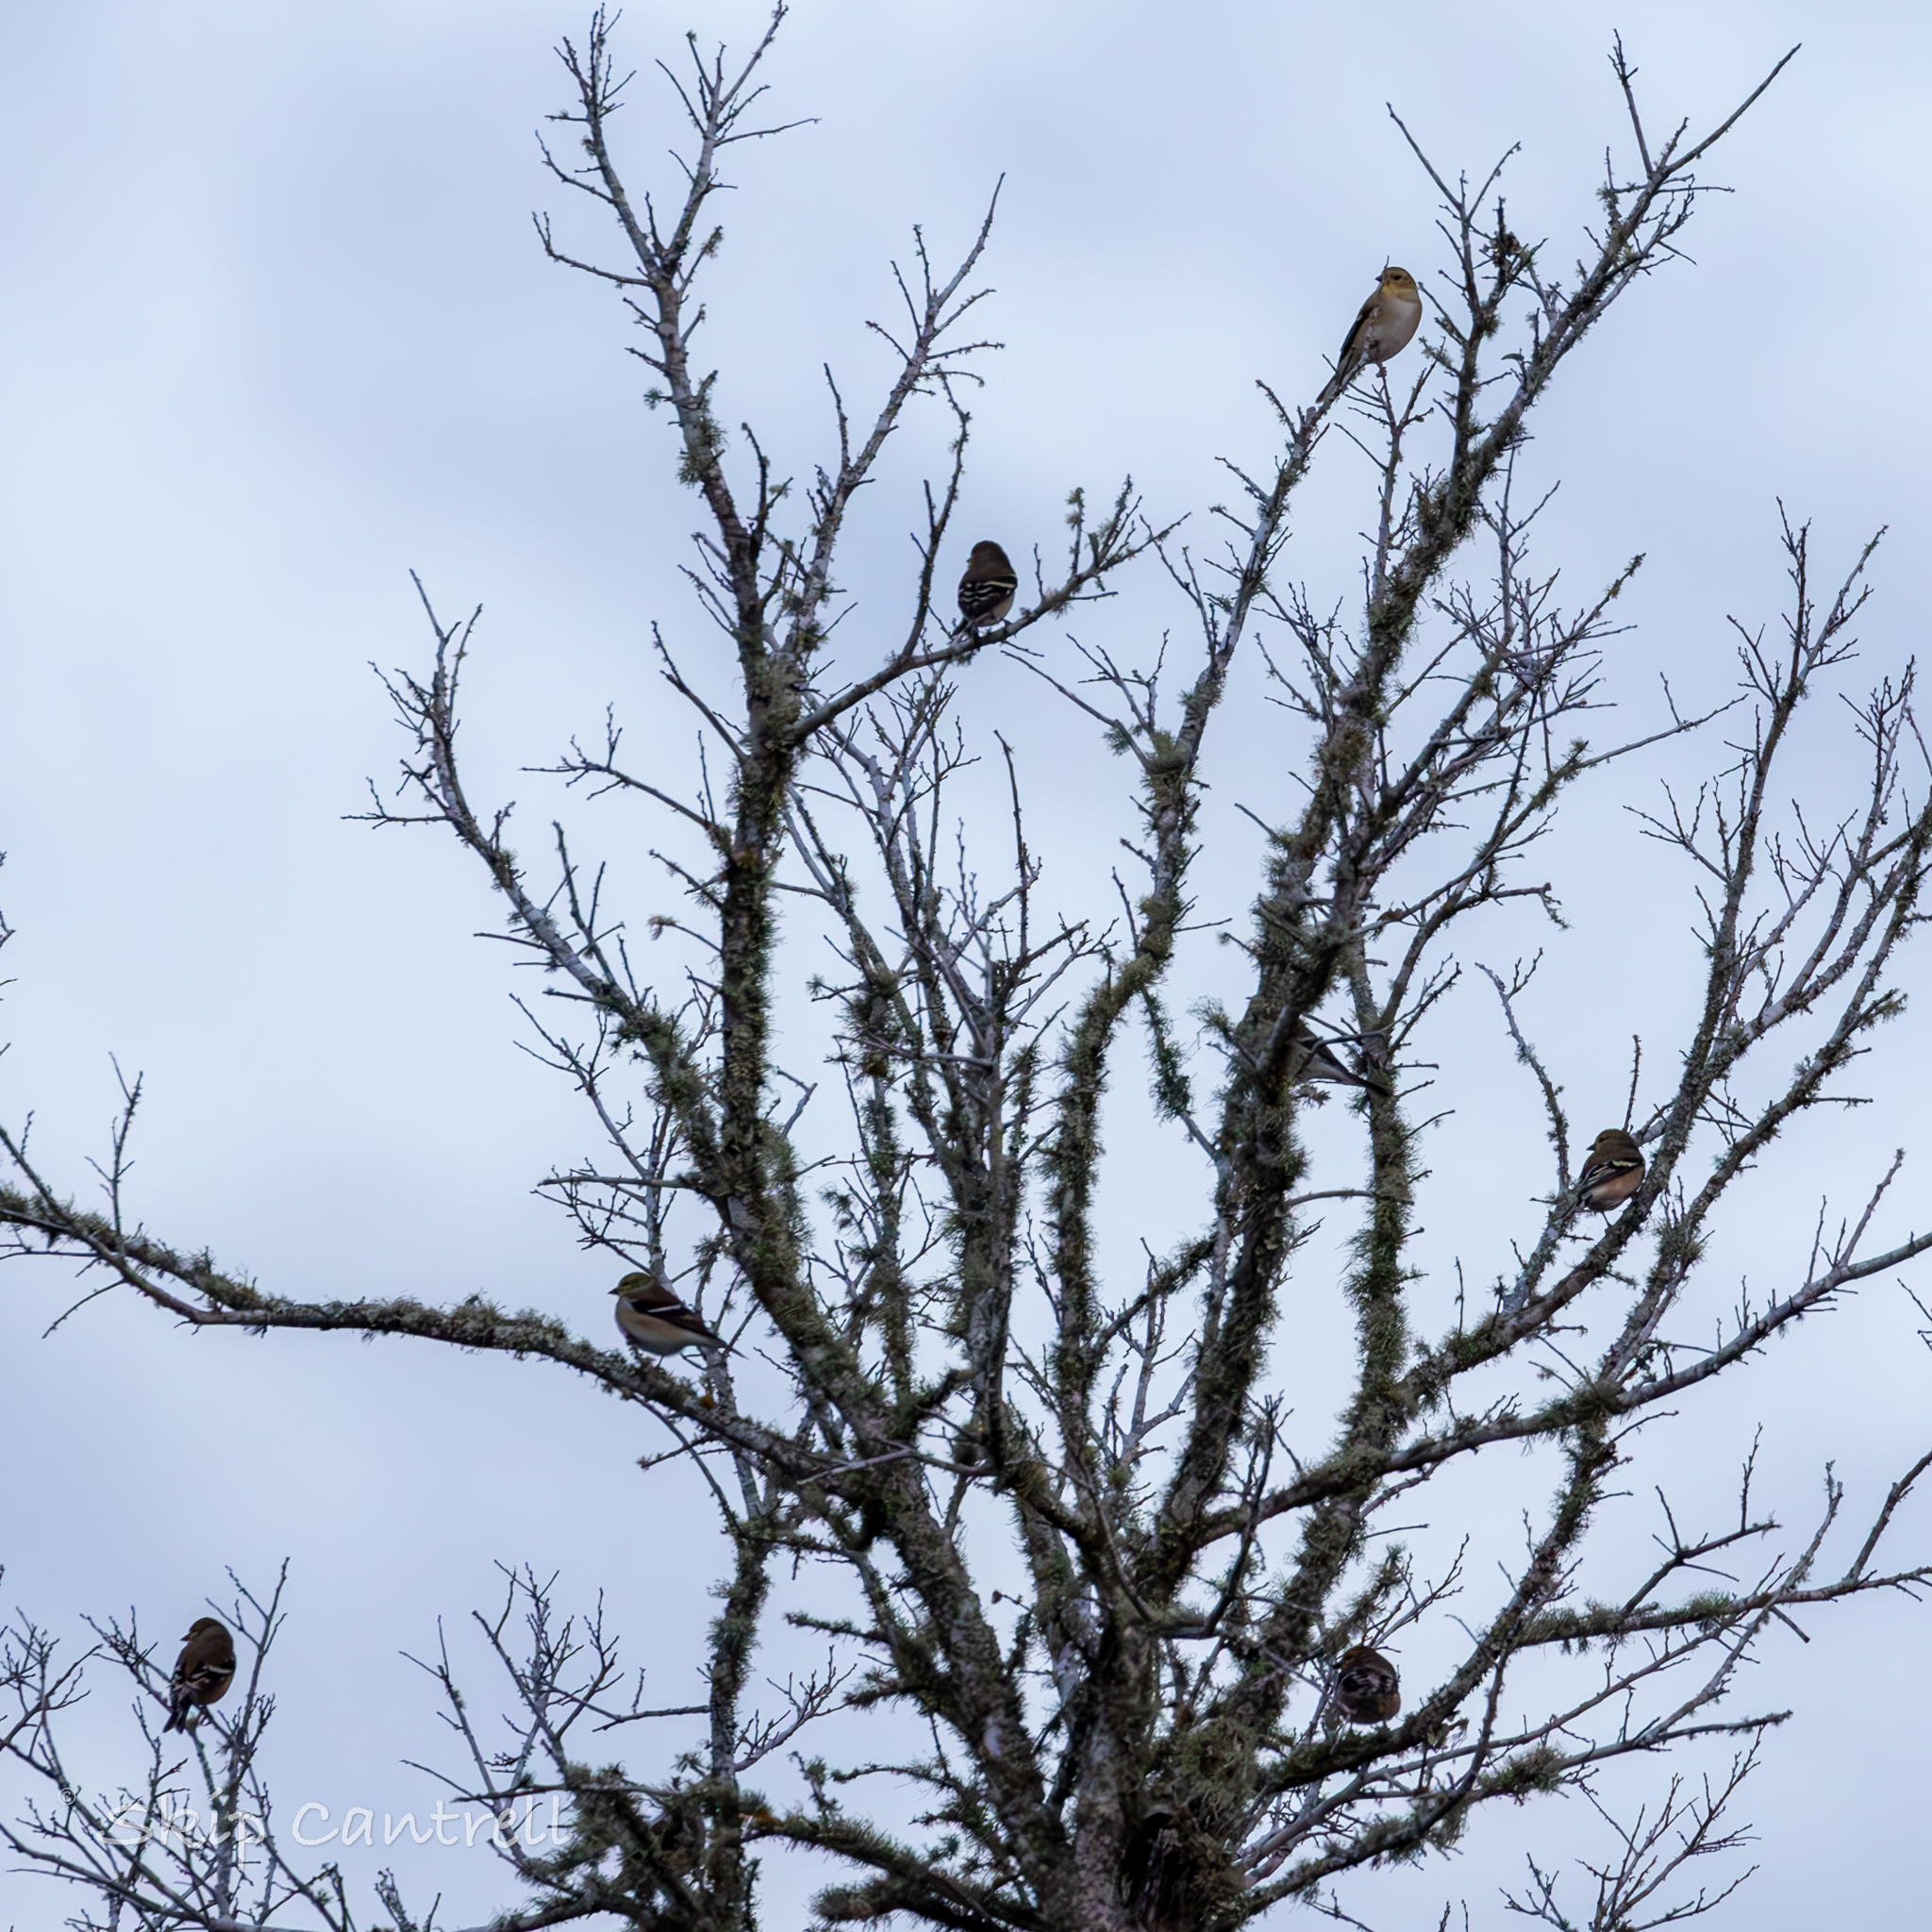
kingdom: Animalia
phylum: Chordata
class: Aves
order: Passeriformes
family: Fringillidae
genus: Spinus
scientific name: Spinus tristis
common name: American goldfinch
